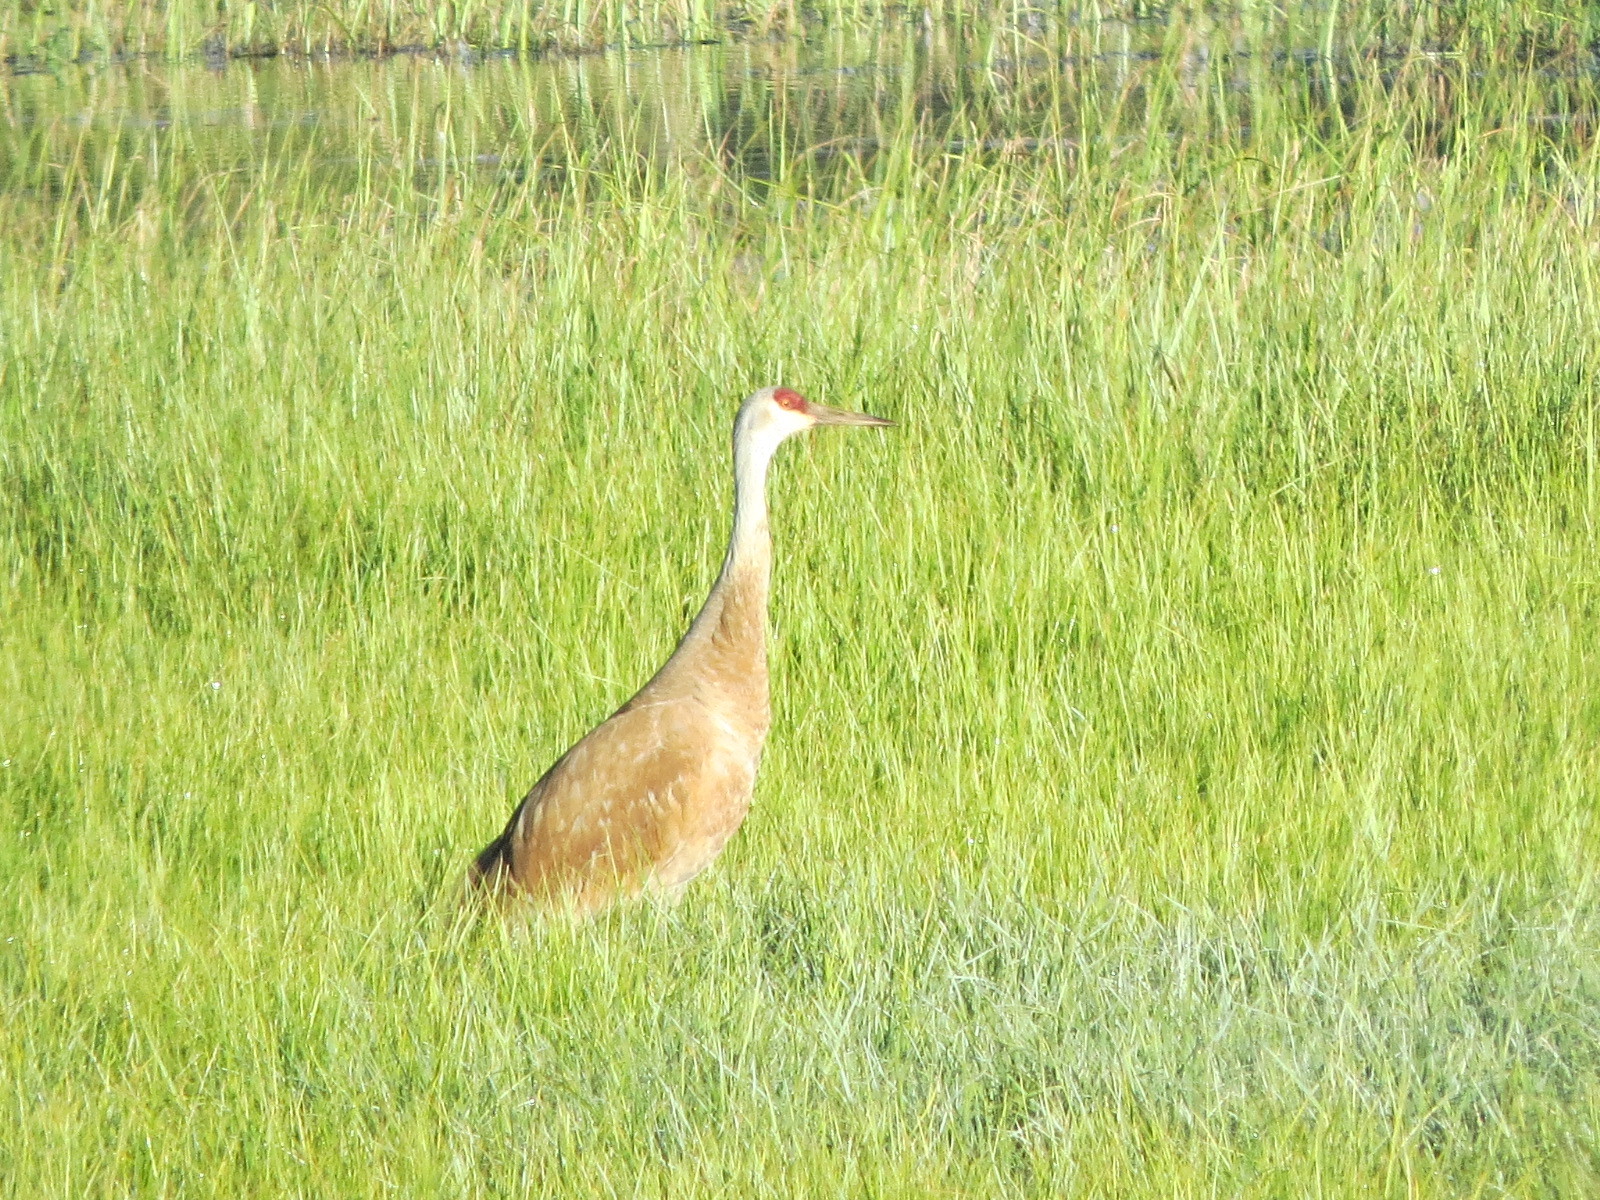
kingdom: Animalia
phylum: Chordata
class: Aves
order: Gruiformes
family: Gruidae
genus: Grus
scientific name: Grus canadensis
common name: Sandhill crane
